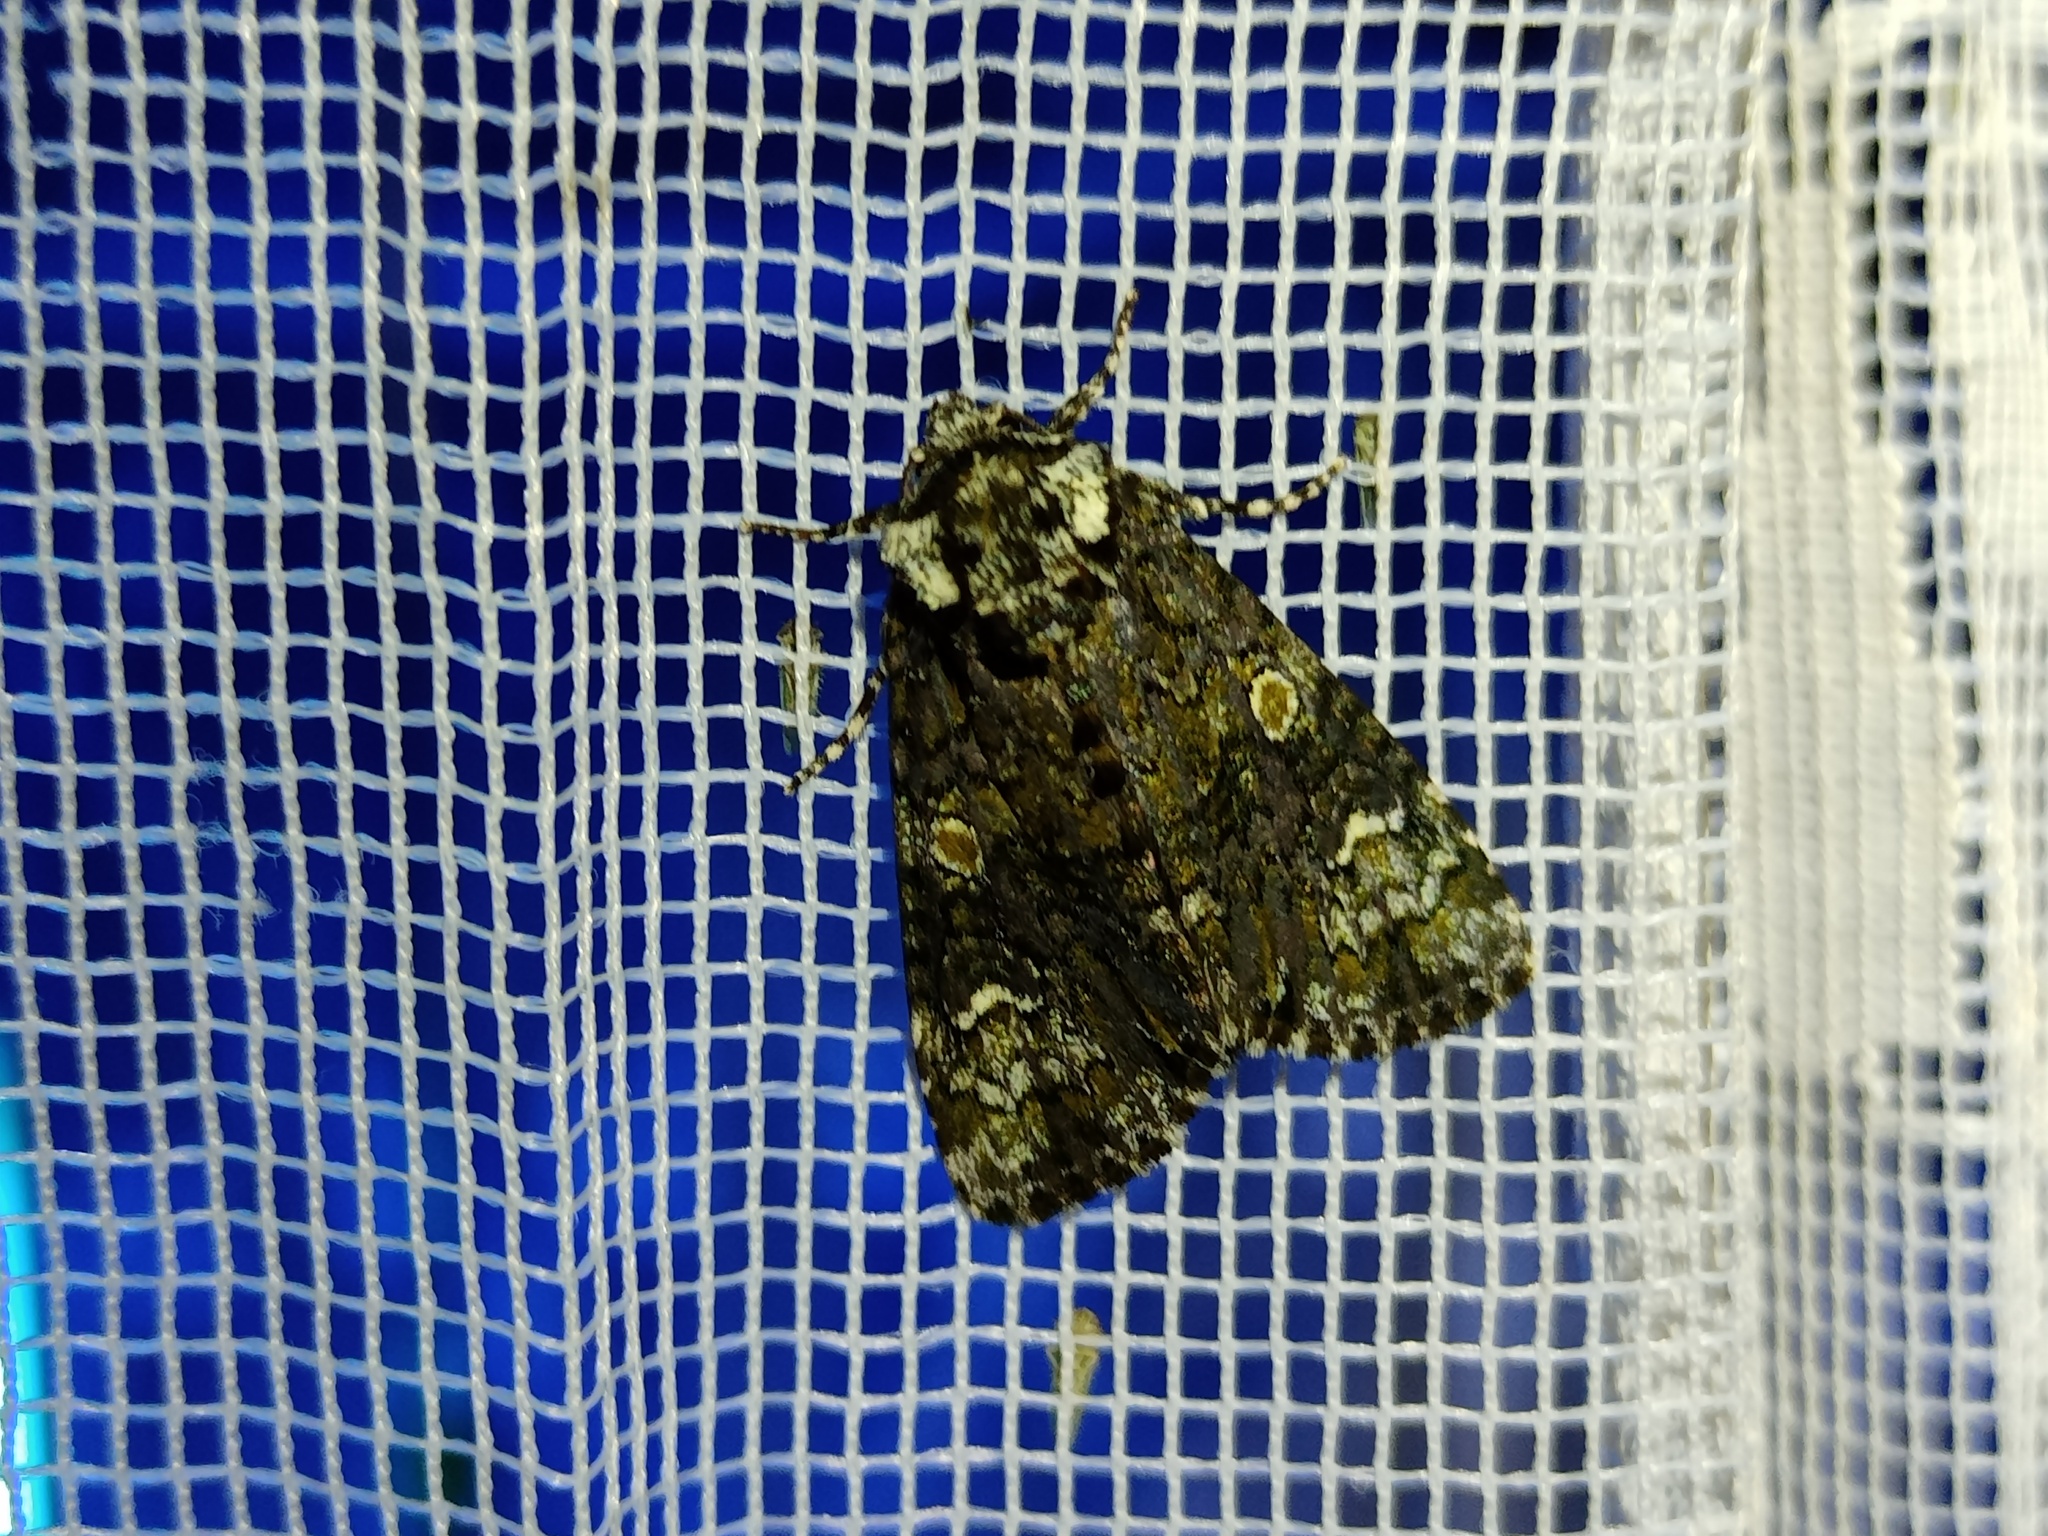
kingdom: Animalia
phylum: Arthropoda
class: Insecta
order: Lepidoptera
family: Noctuidae
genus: Craniophora
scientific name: Craniophora ligustri
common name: Coronet
